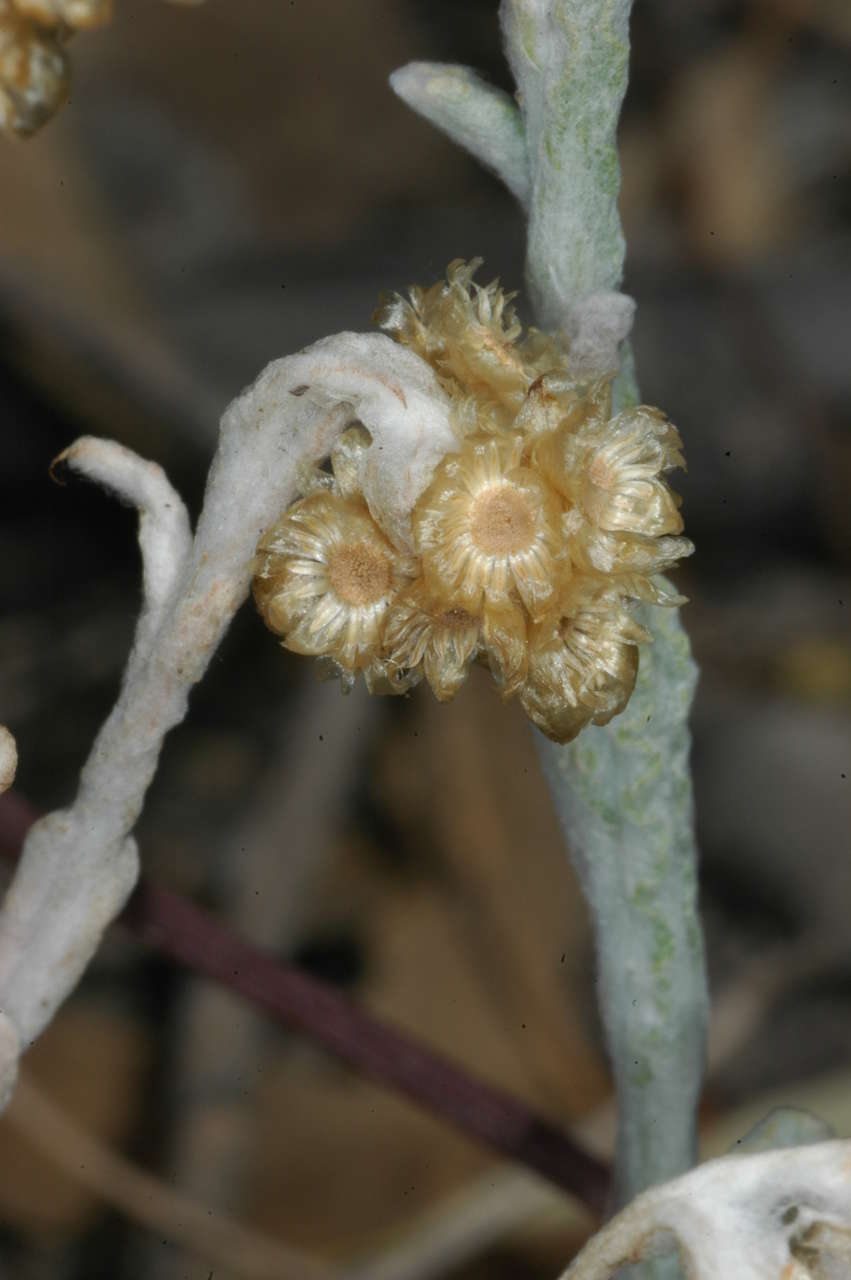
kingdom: Plantae
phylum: Tracheophyta
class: Magnoliopsida
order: Asterales
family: Asteraceae
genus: Helichrysum
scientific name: Helichrysum luteoalbum
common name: Daisy
